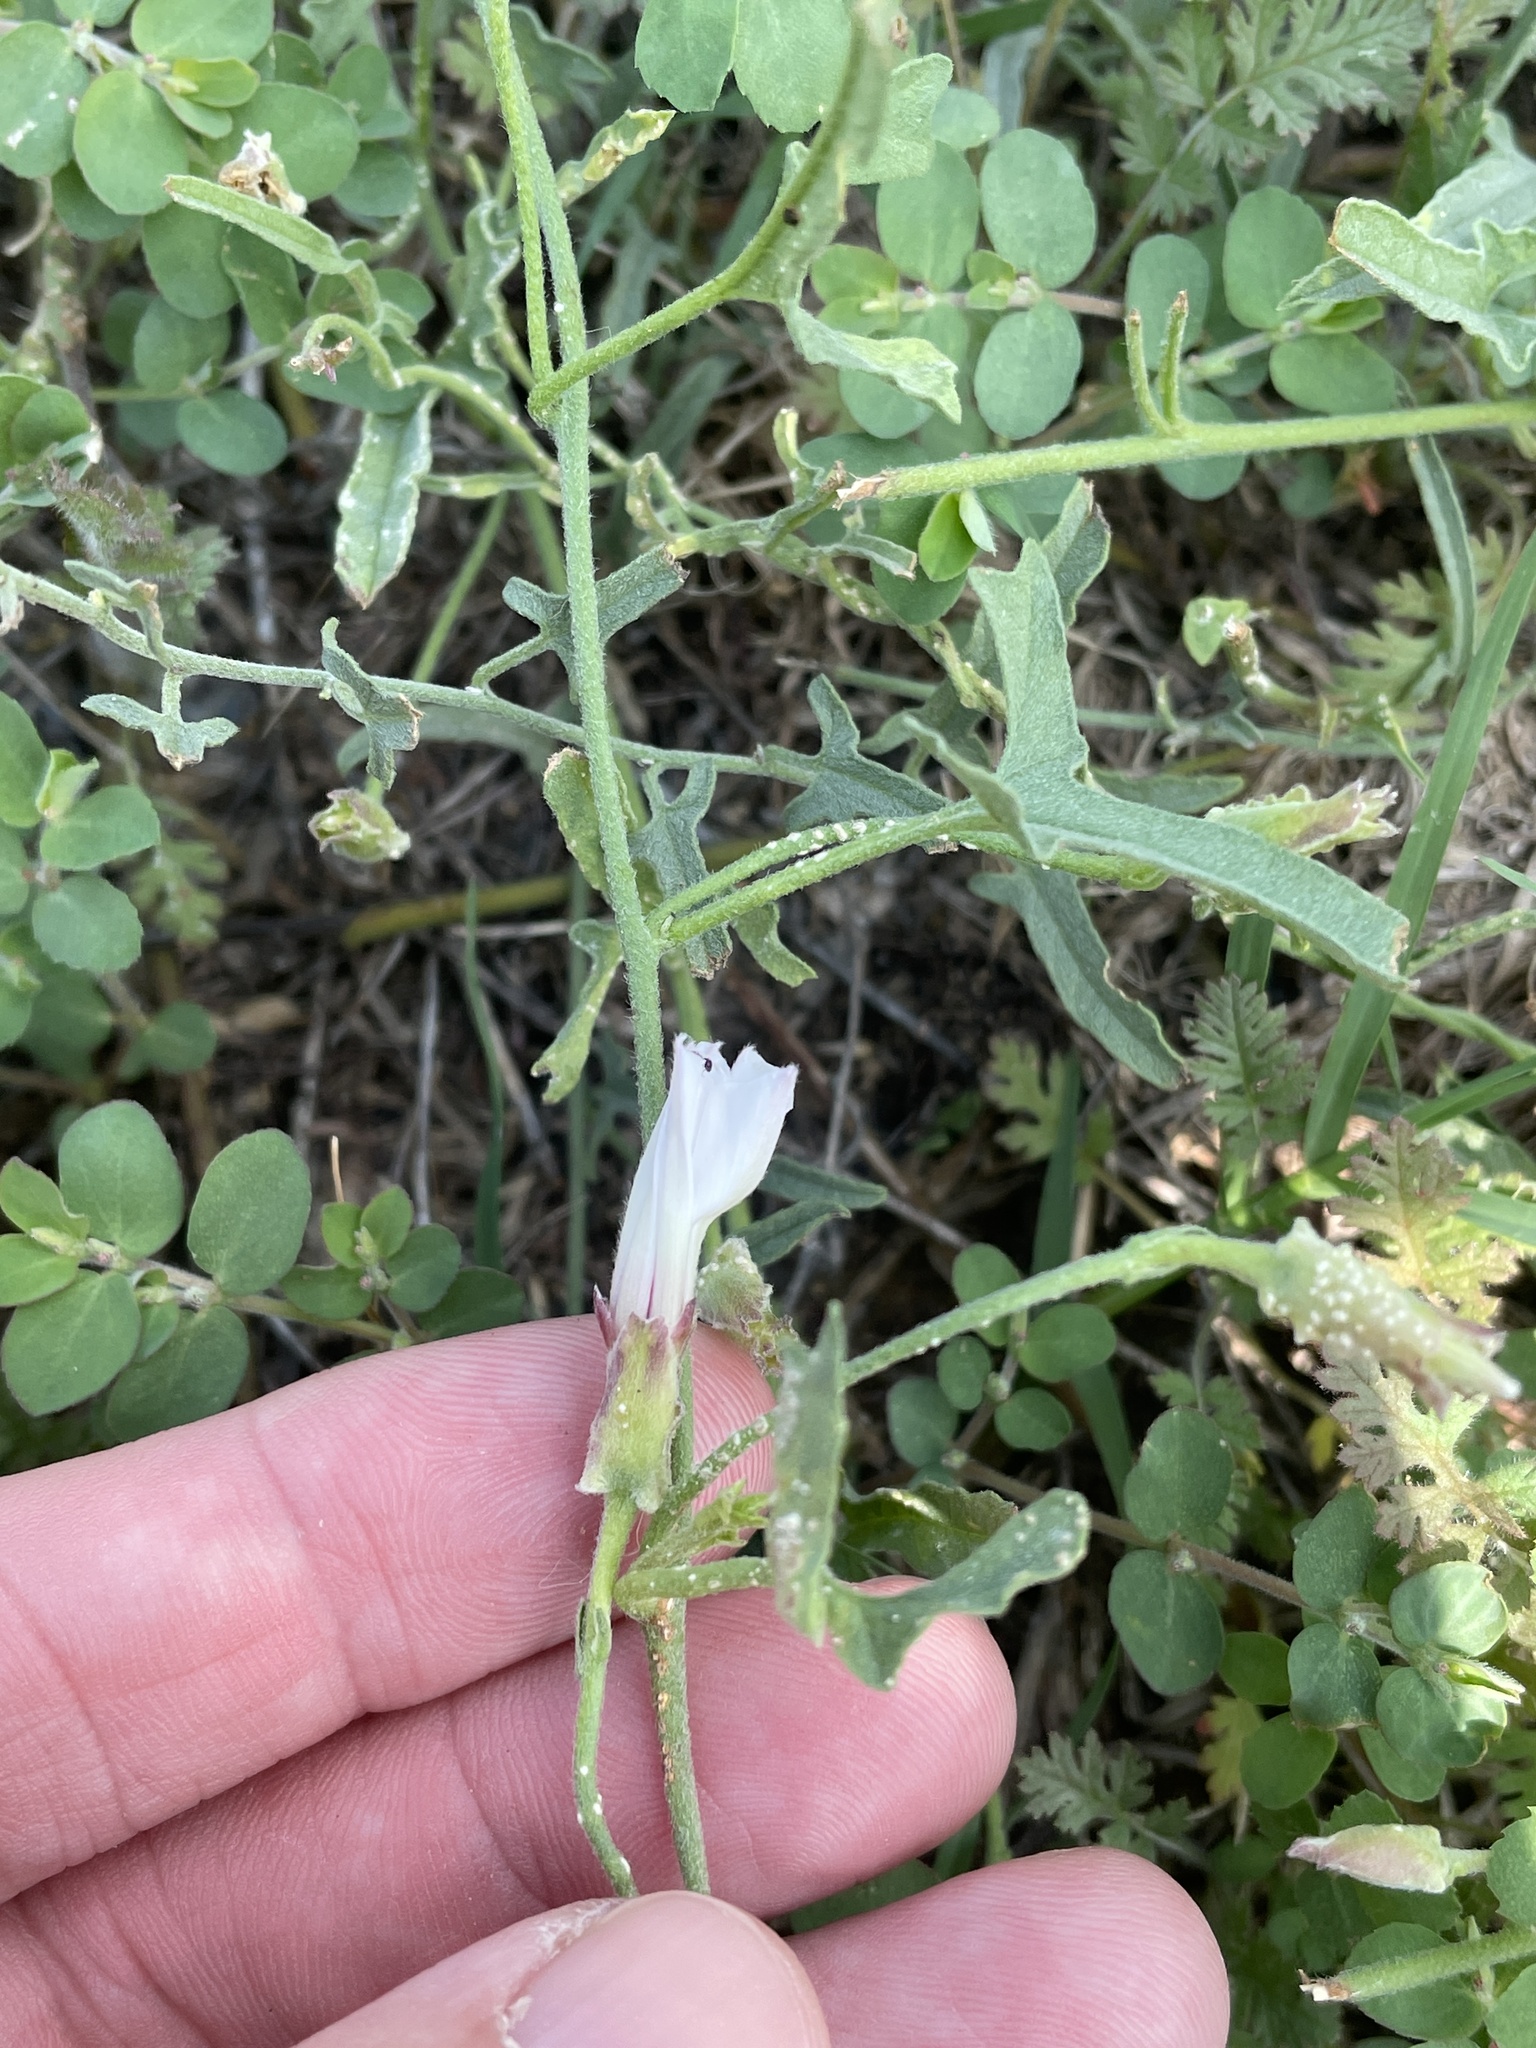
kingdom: Plantae
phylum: Tracheophyta
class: Magnoliopsida
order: Solanales
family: Convolvulaceae
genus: Convolvulus
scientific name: Convolvulus equitans
